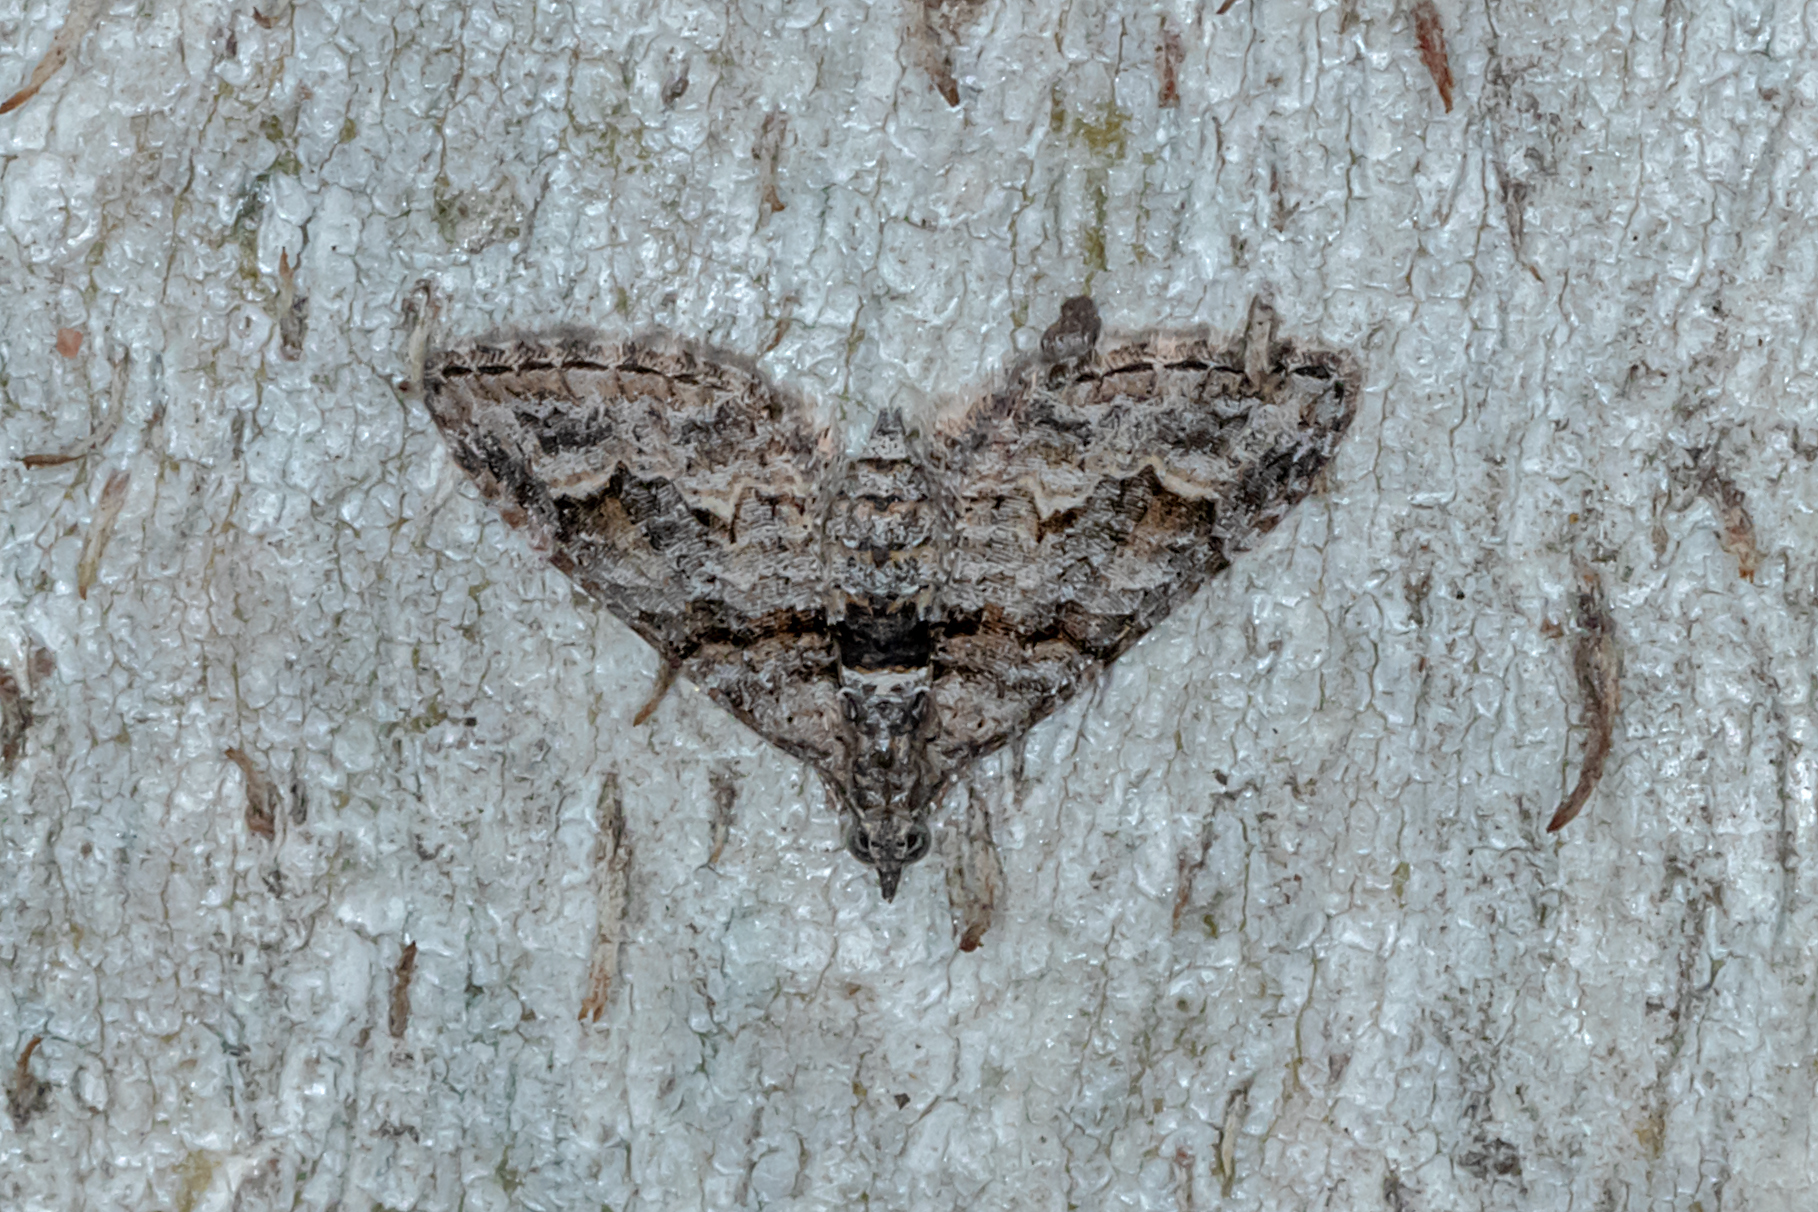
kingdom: Animalia
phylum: Arthropoda
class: Insecta
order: Lepidoptera
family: Geometridae
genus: Phrissogonus
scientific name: Phrissogonus laticostata
